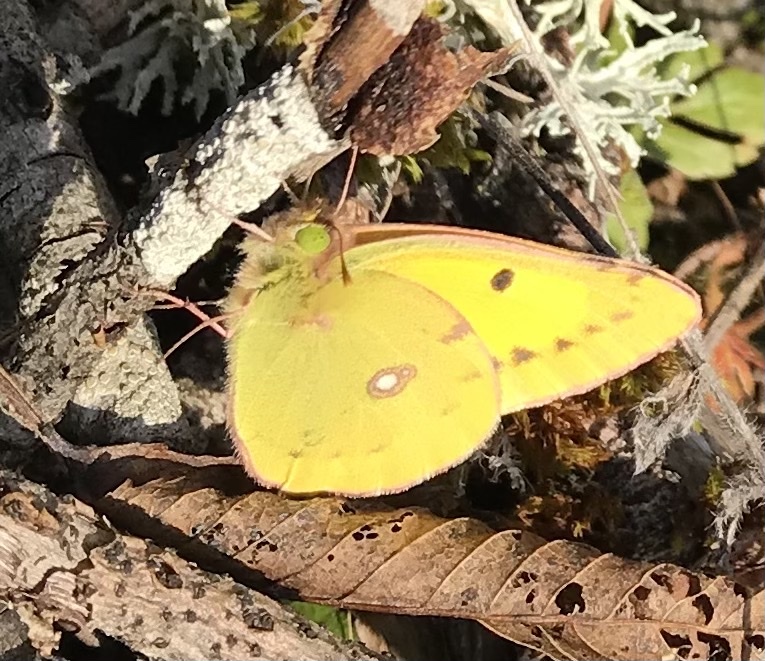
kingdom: Animalia
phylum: Arthropoda
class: Insecta
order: Lepidoptera
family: Pieridae
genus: Colias
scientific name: Colias croceus
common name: Clouded yellow
